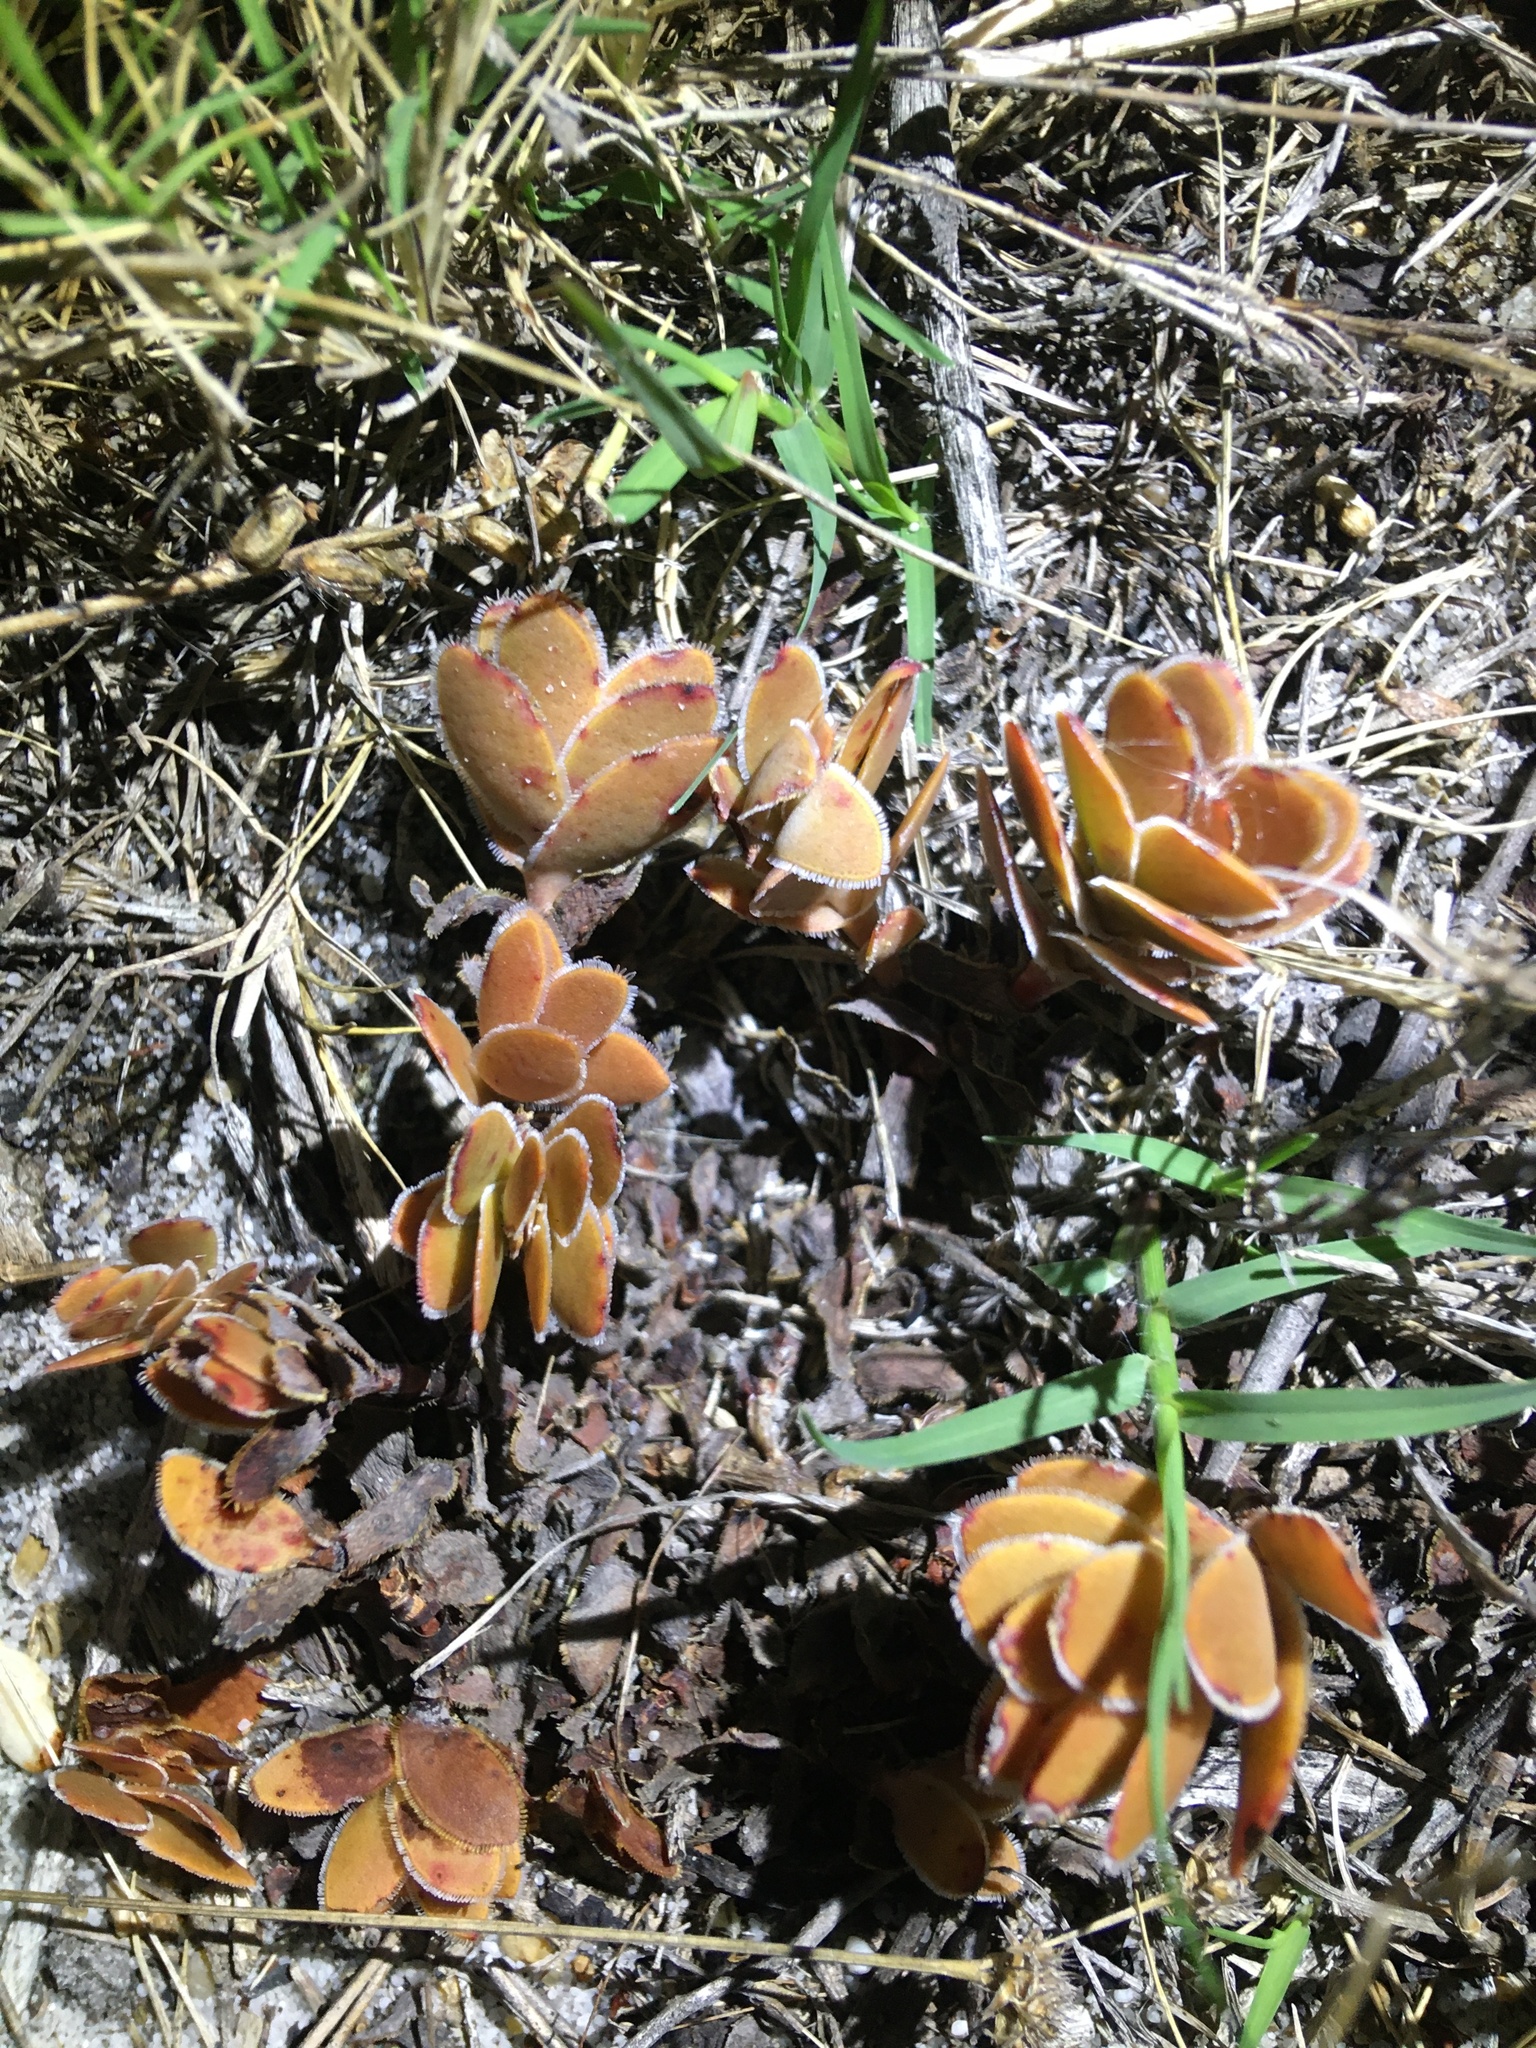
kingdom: Plantae
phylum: Tracheophyta
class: Magnoliopsida
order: Saxifragales
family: Crassulaceae
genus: Crassula
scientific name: Crassula fallax
